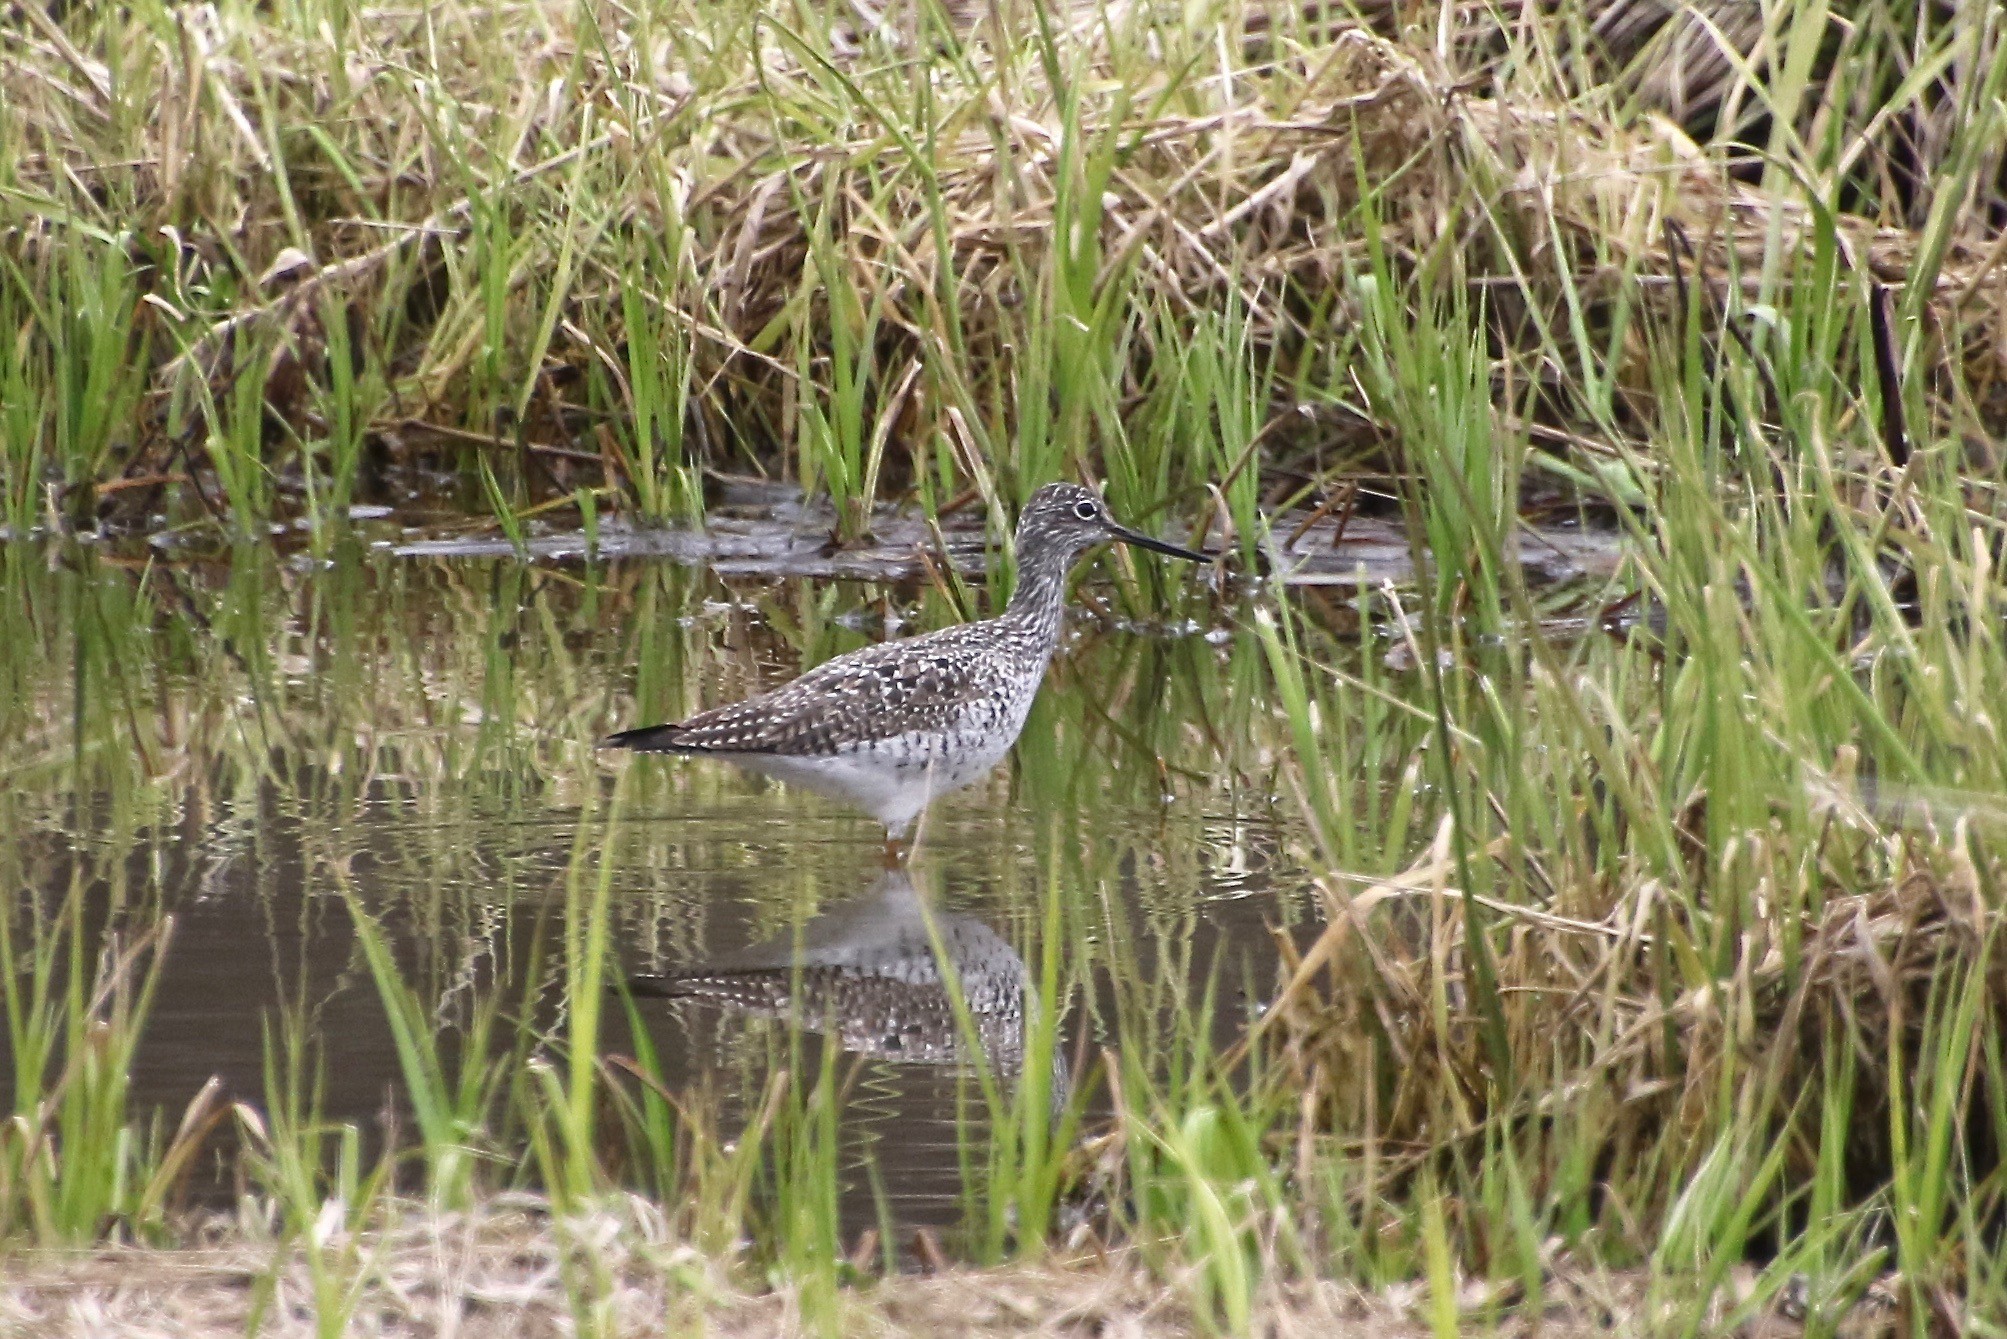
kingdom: Animalia
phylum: Chordata
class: Aves
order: Charadriiformes
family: Scolopacidae
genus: Tringa
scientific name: Tringa melanoleuca
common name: Greater yellowlegs
